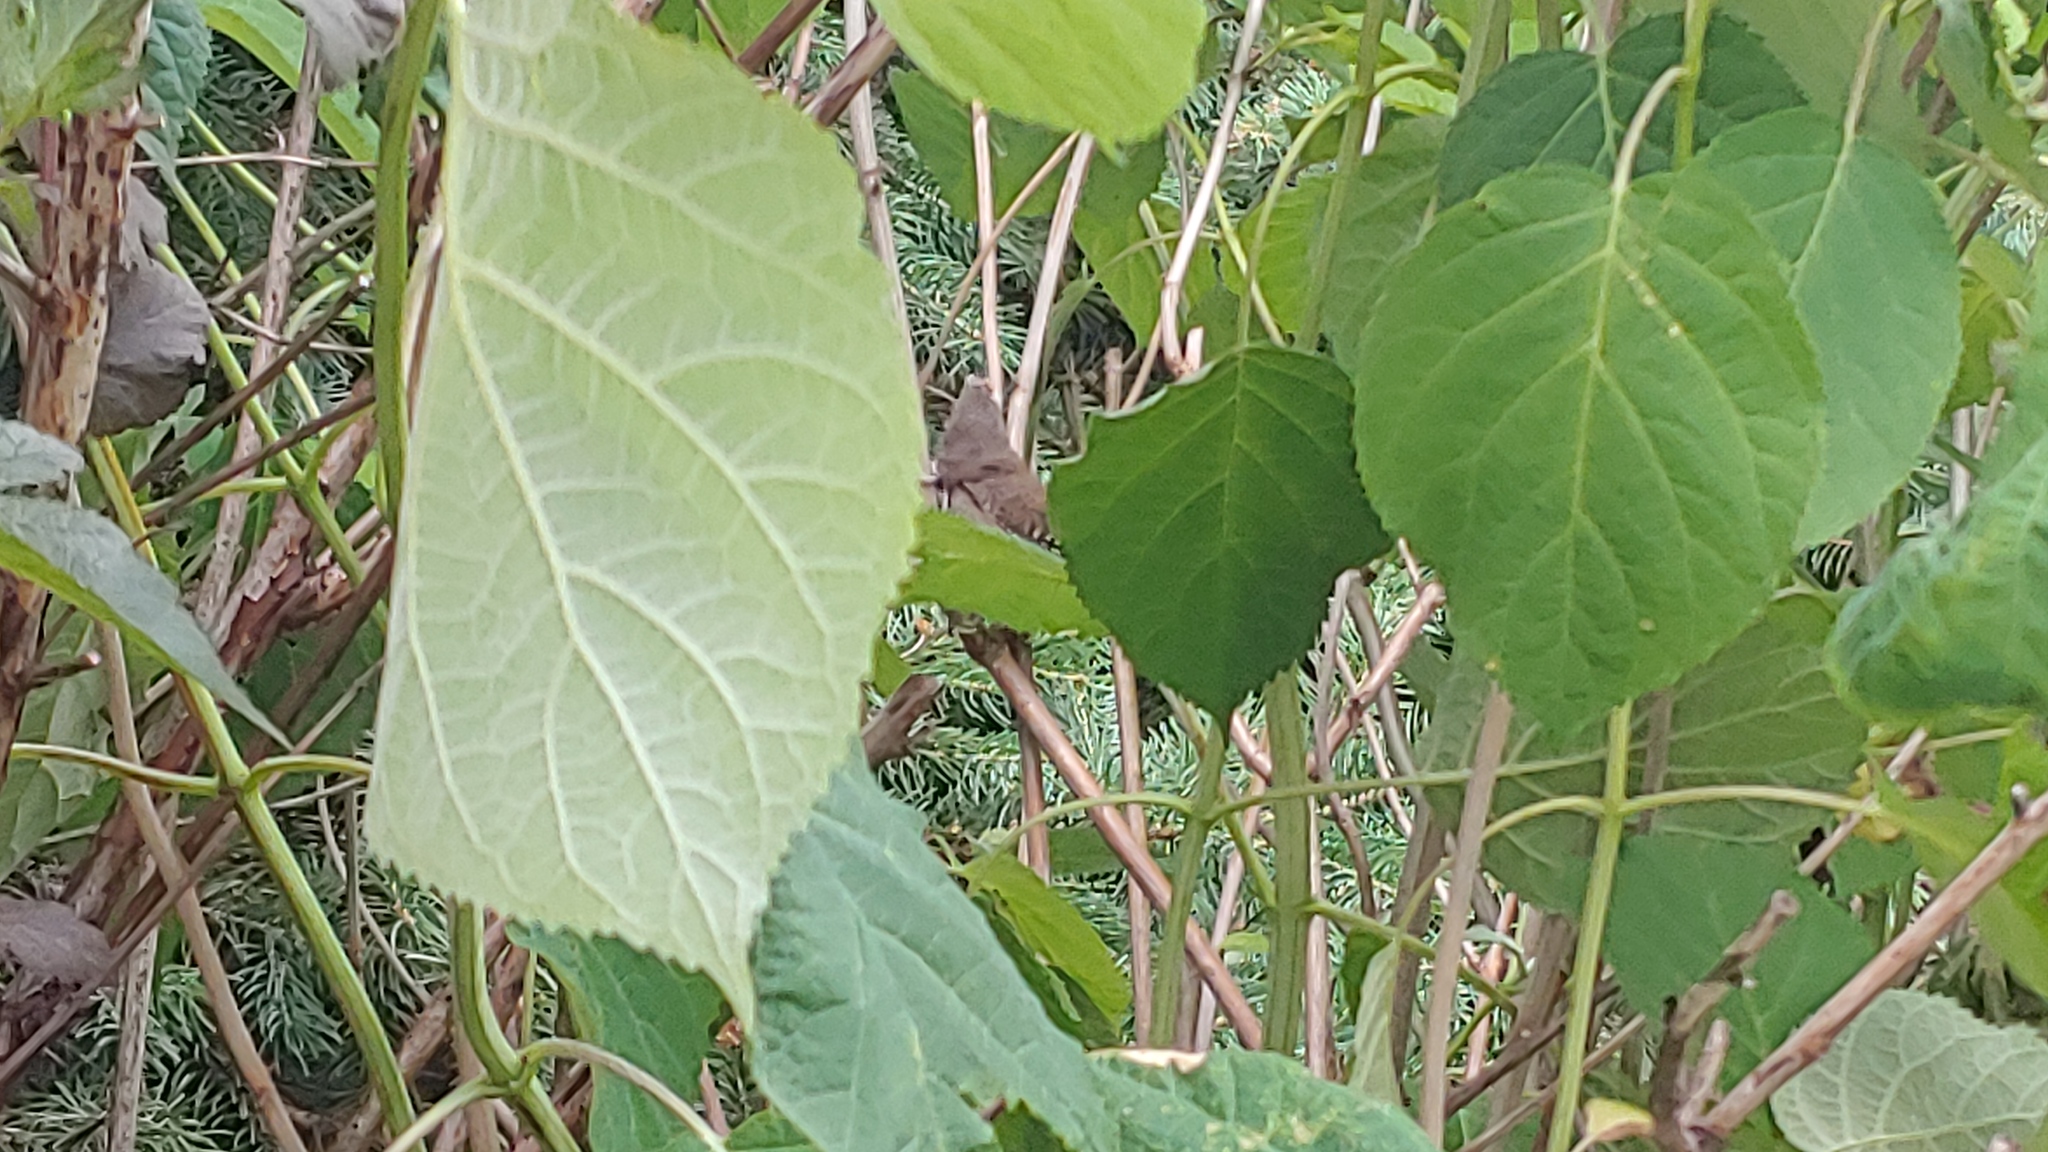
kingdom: Animalia
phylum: Chordata
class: Aves
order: Passeriformes
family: Troglodytidae
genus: Troglodytes
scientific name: Troglodytes aedon
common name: House wren
